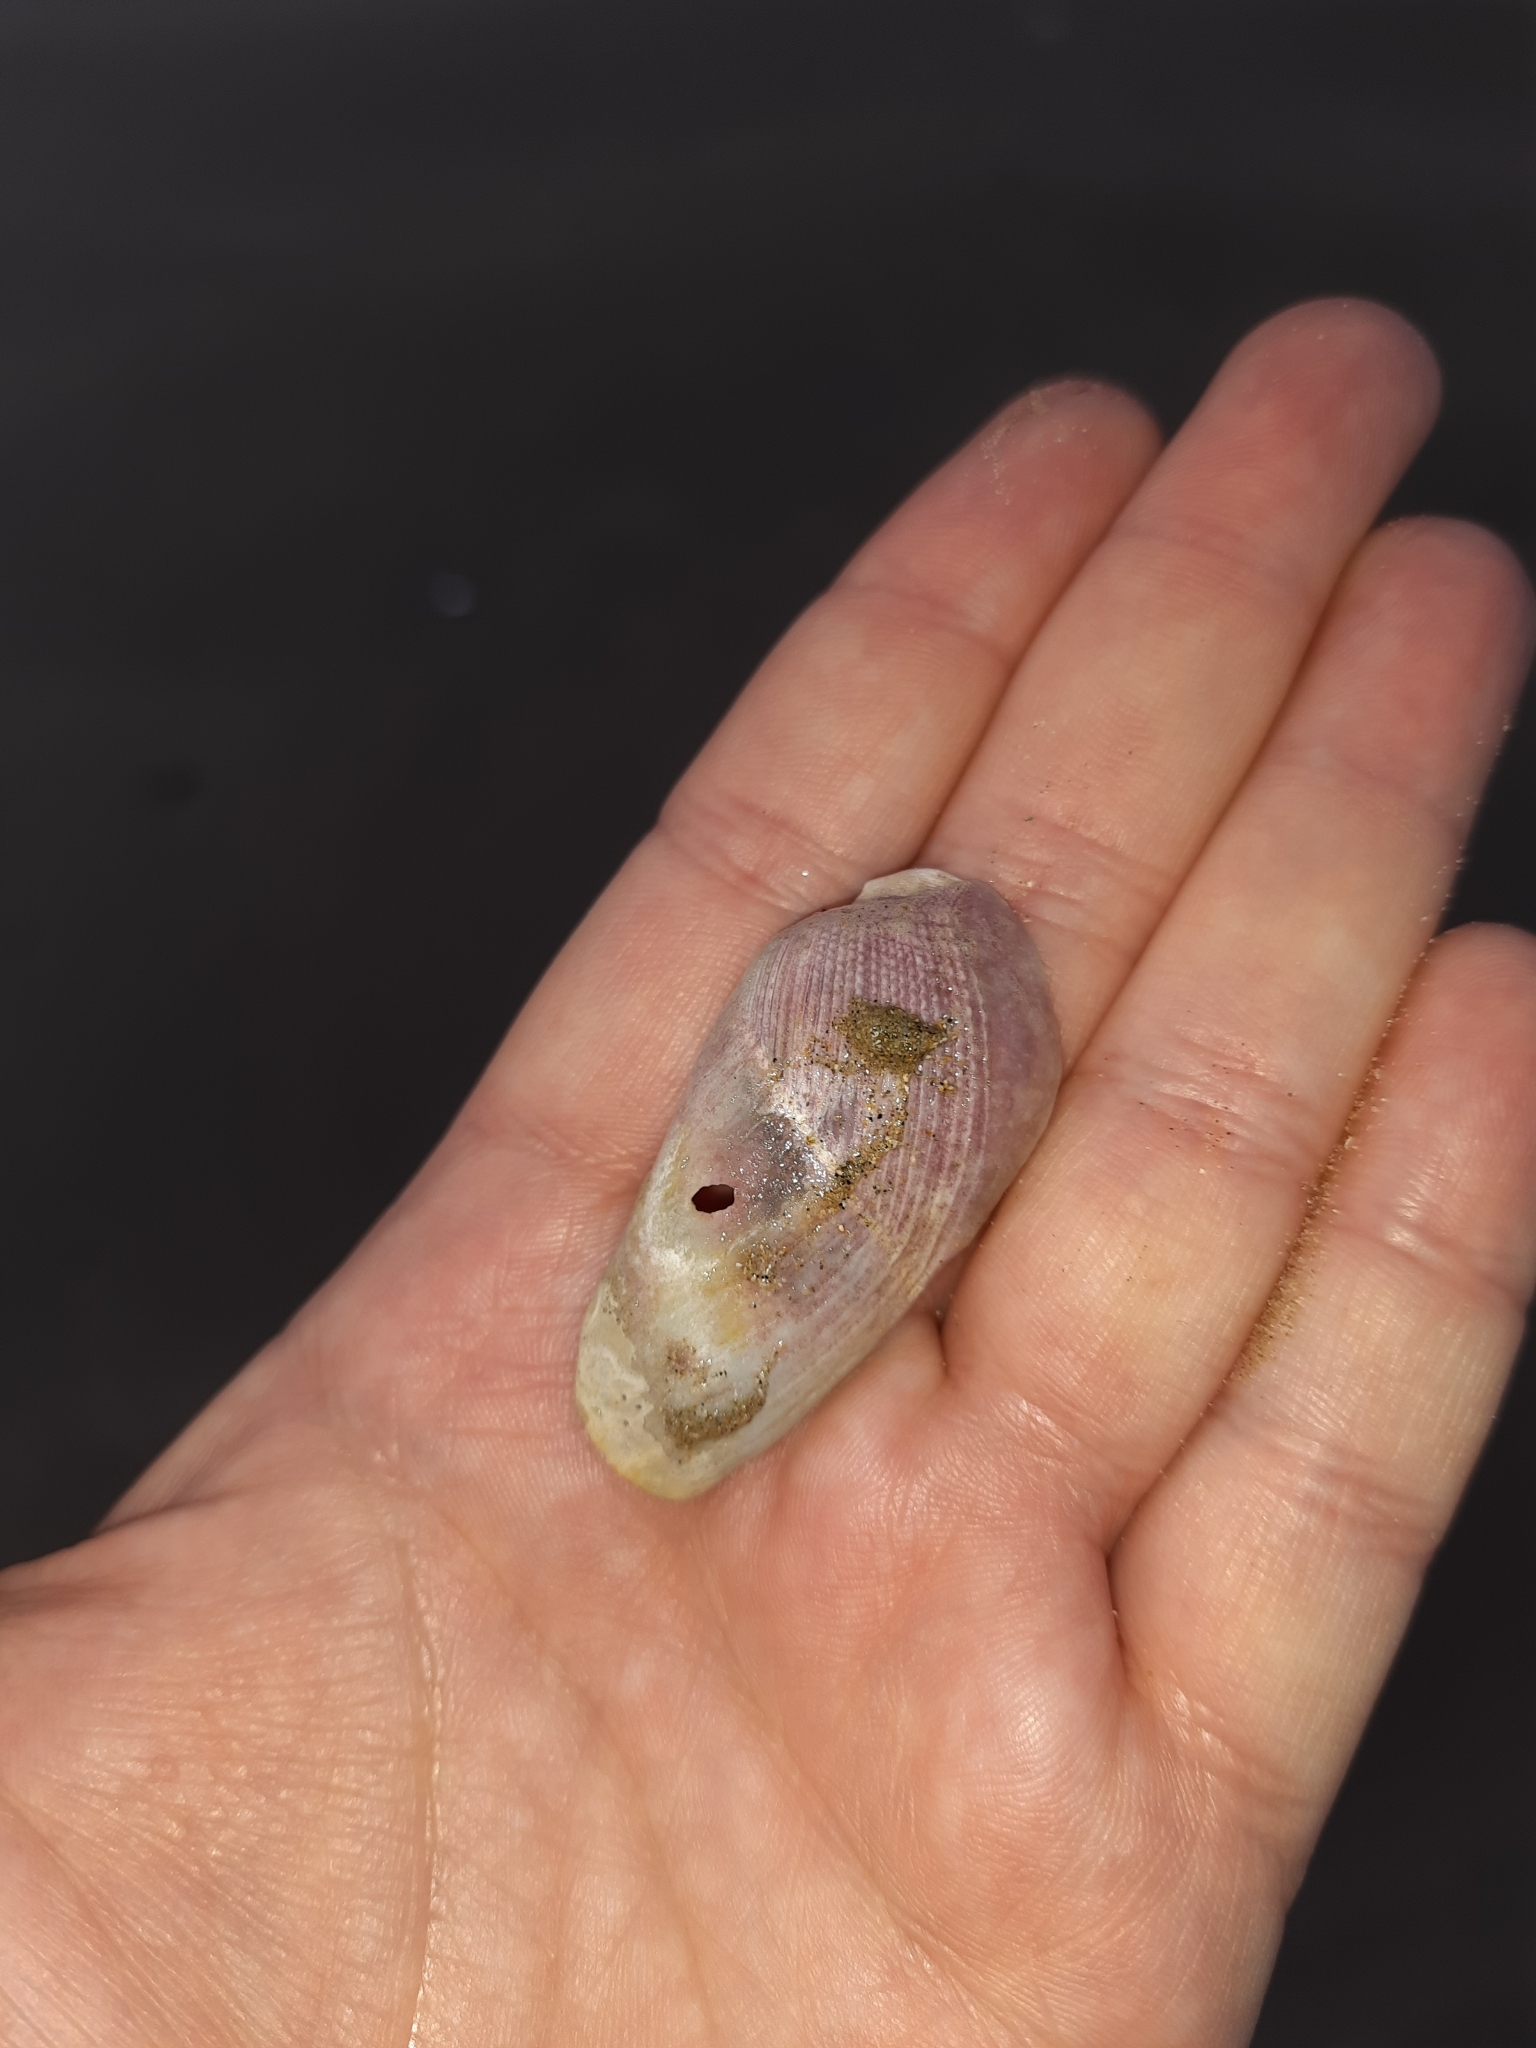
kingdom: Animalia
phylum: Mollusca
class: Bivalvia
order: Myida
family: Pholadidae
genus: Pholadidea
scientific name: Pholadidea suteri
